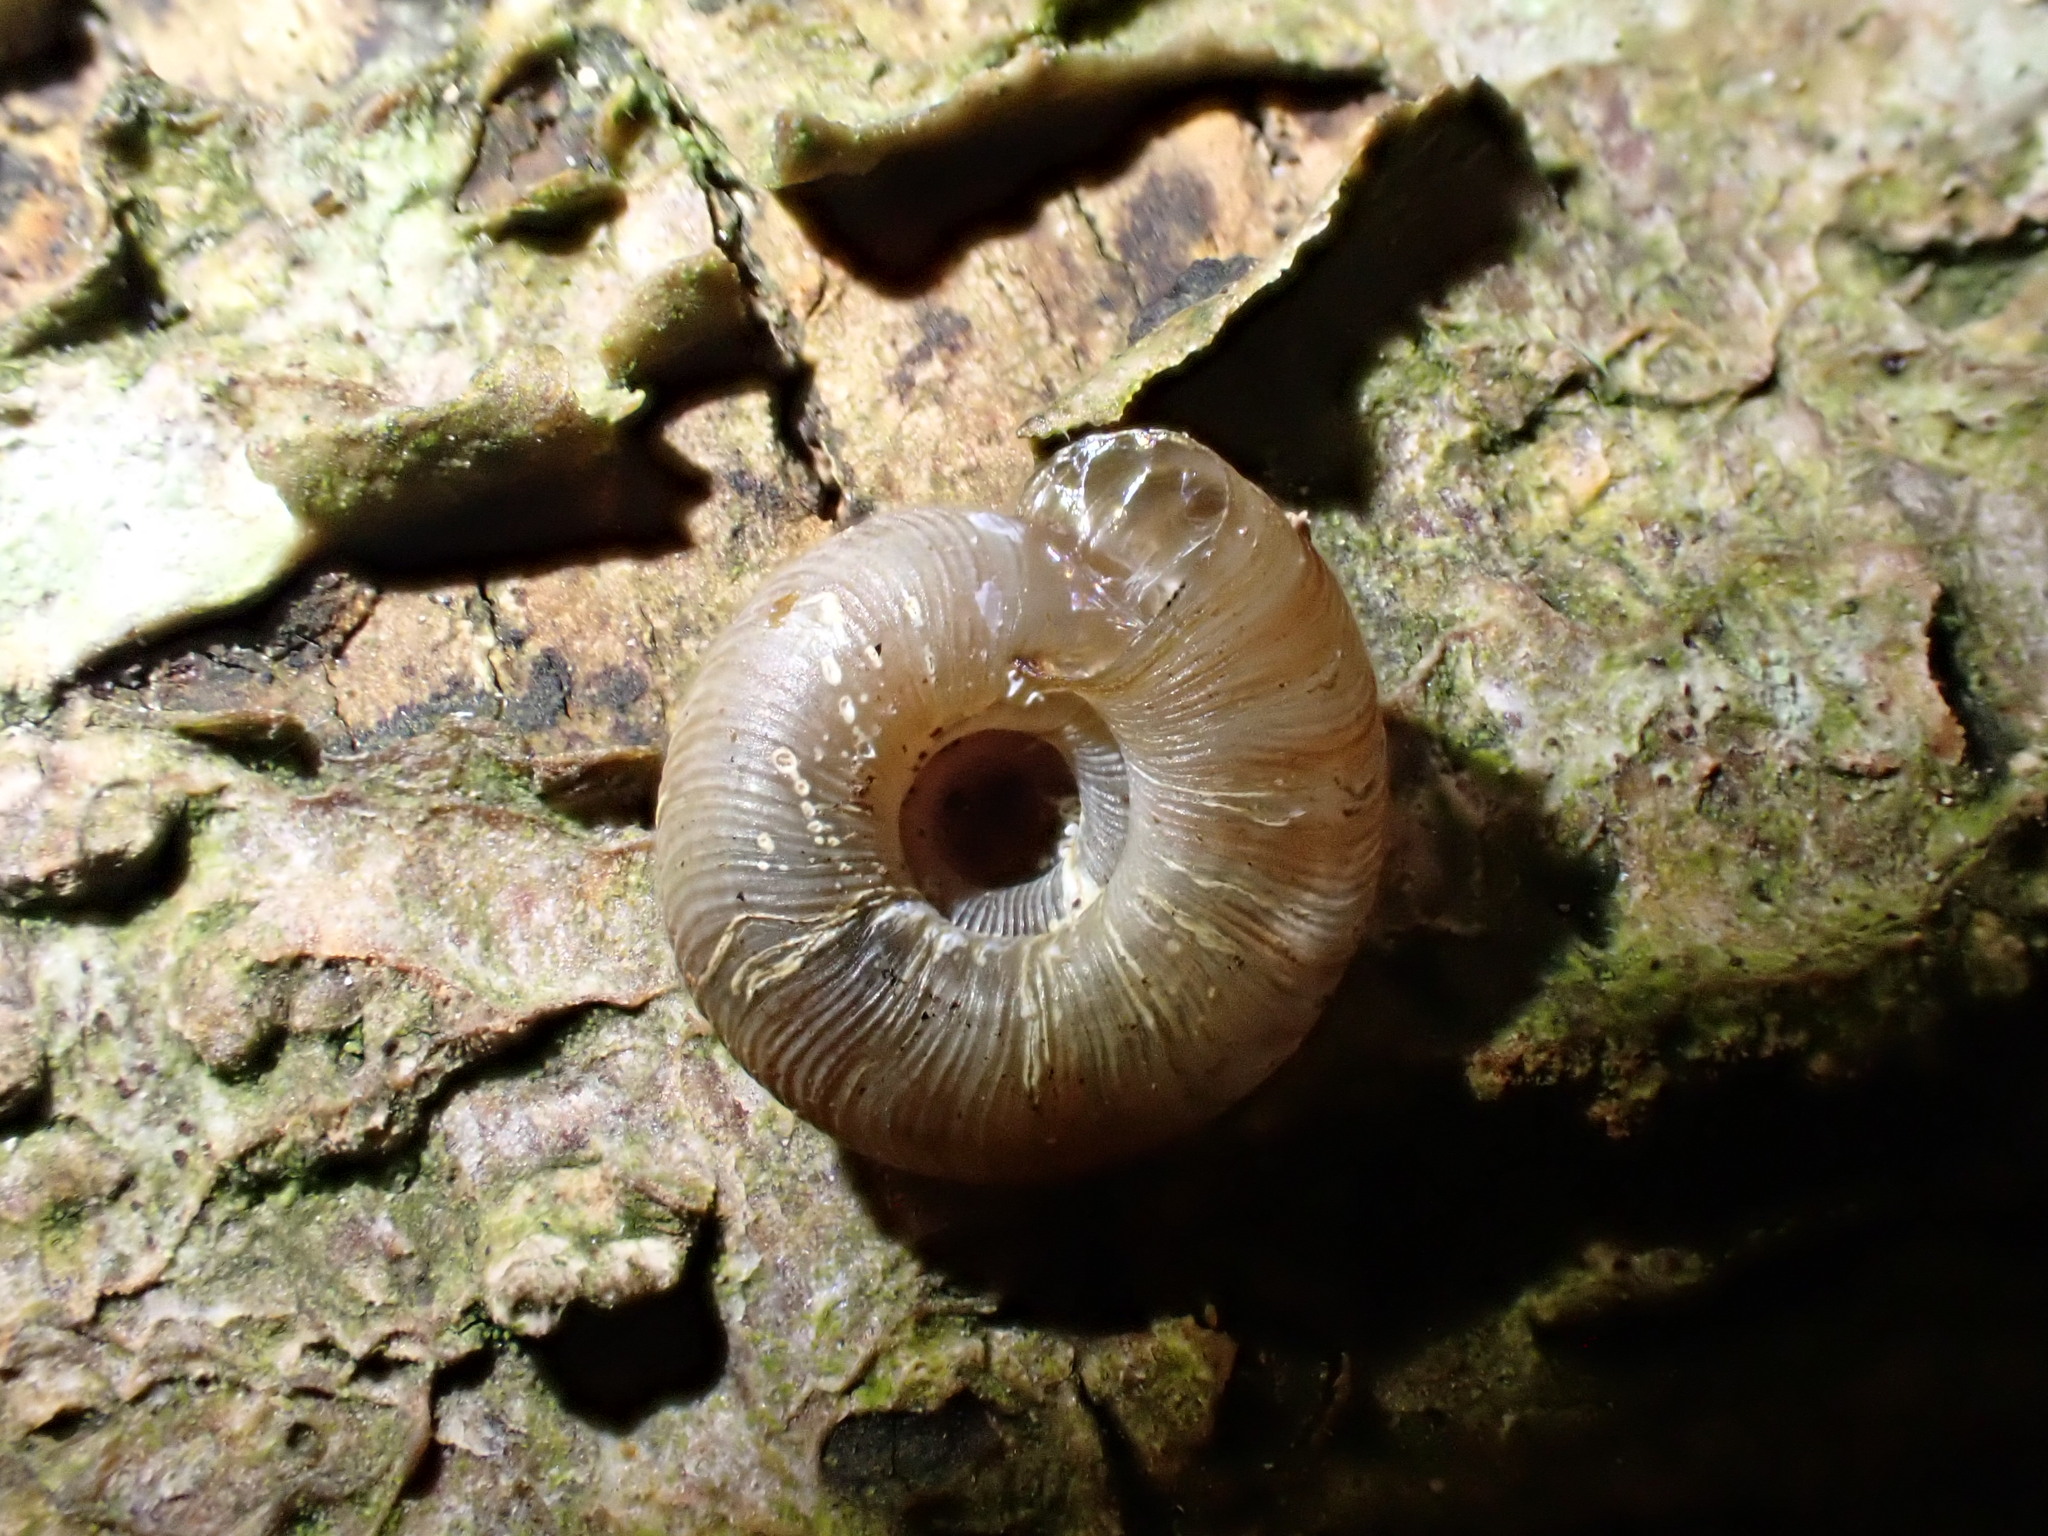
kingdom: Animalia
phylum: Mollusca
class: Gastropoda
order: Stylommatophora
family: Discidae
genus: Discus
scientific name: Discus rotundatus
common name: Rounded snail
